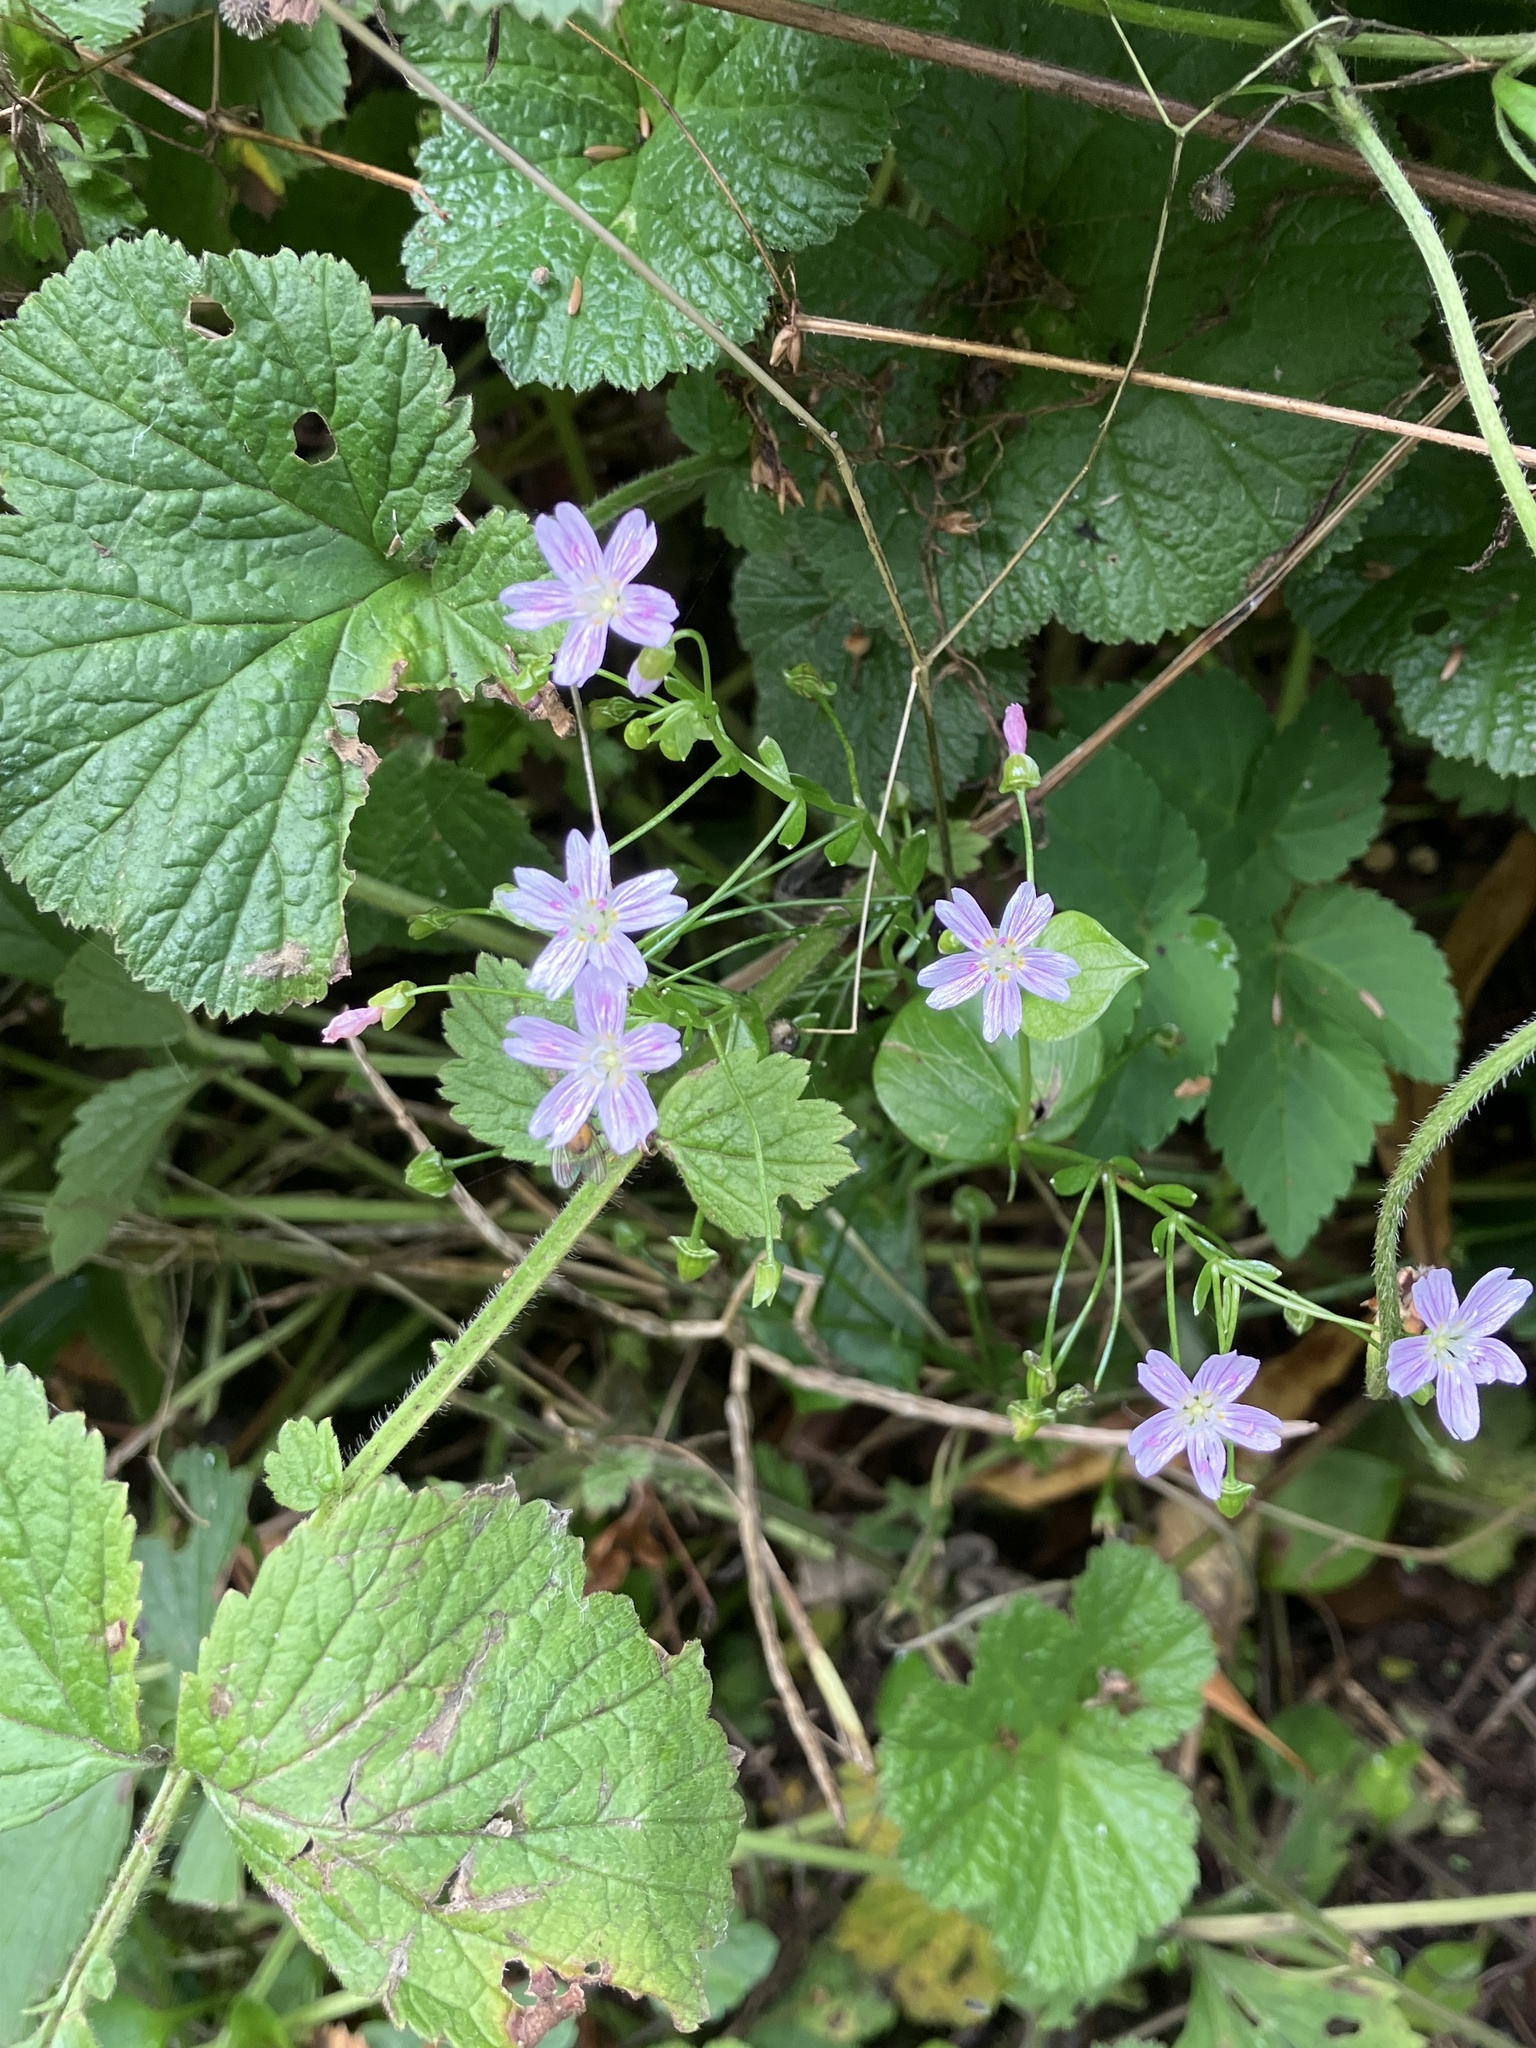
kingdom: Plantae
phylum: Tracheophyta
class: Magnoliopsida
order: Caryophyllales
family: Montiaceae
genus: Claytonia
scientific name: Claytonia sibirica
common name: Pink purslane
